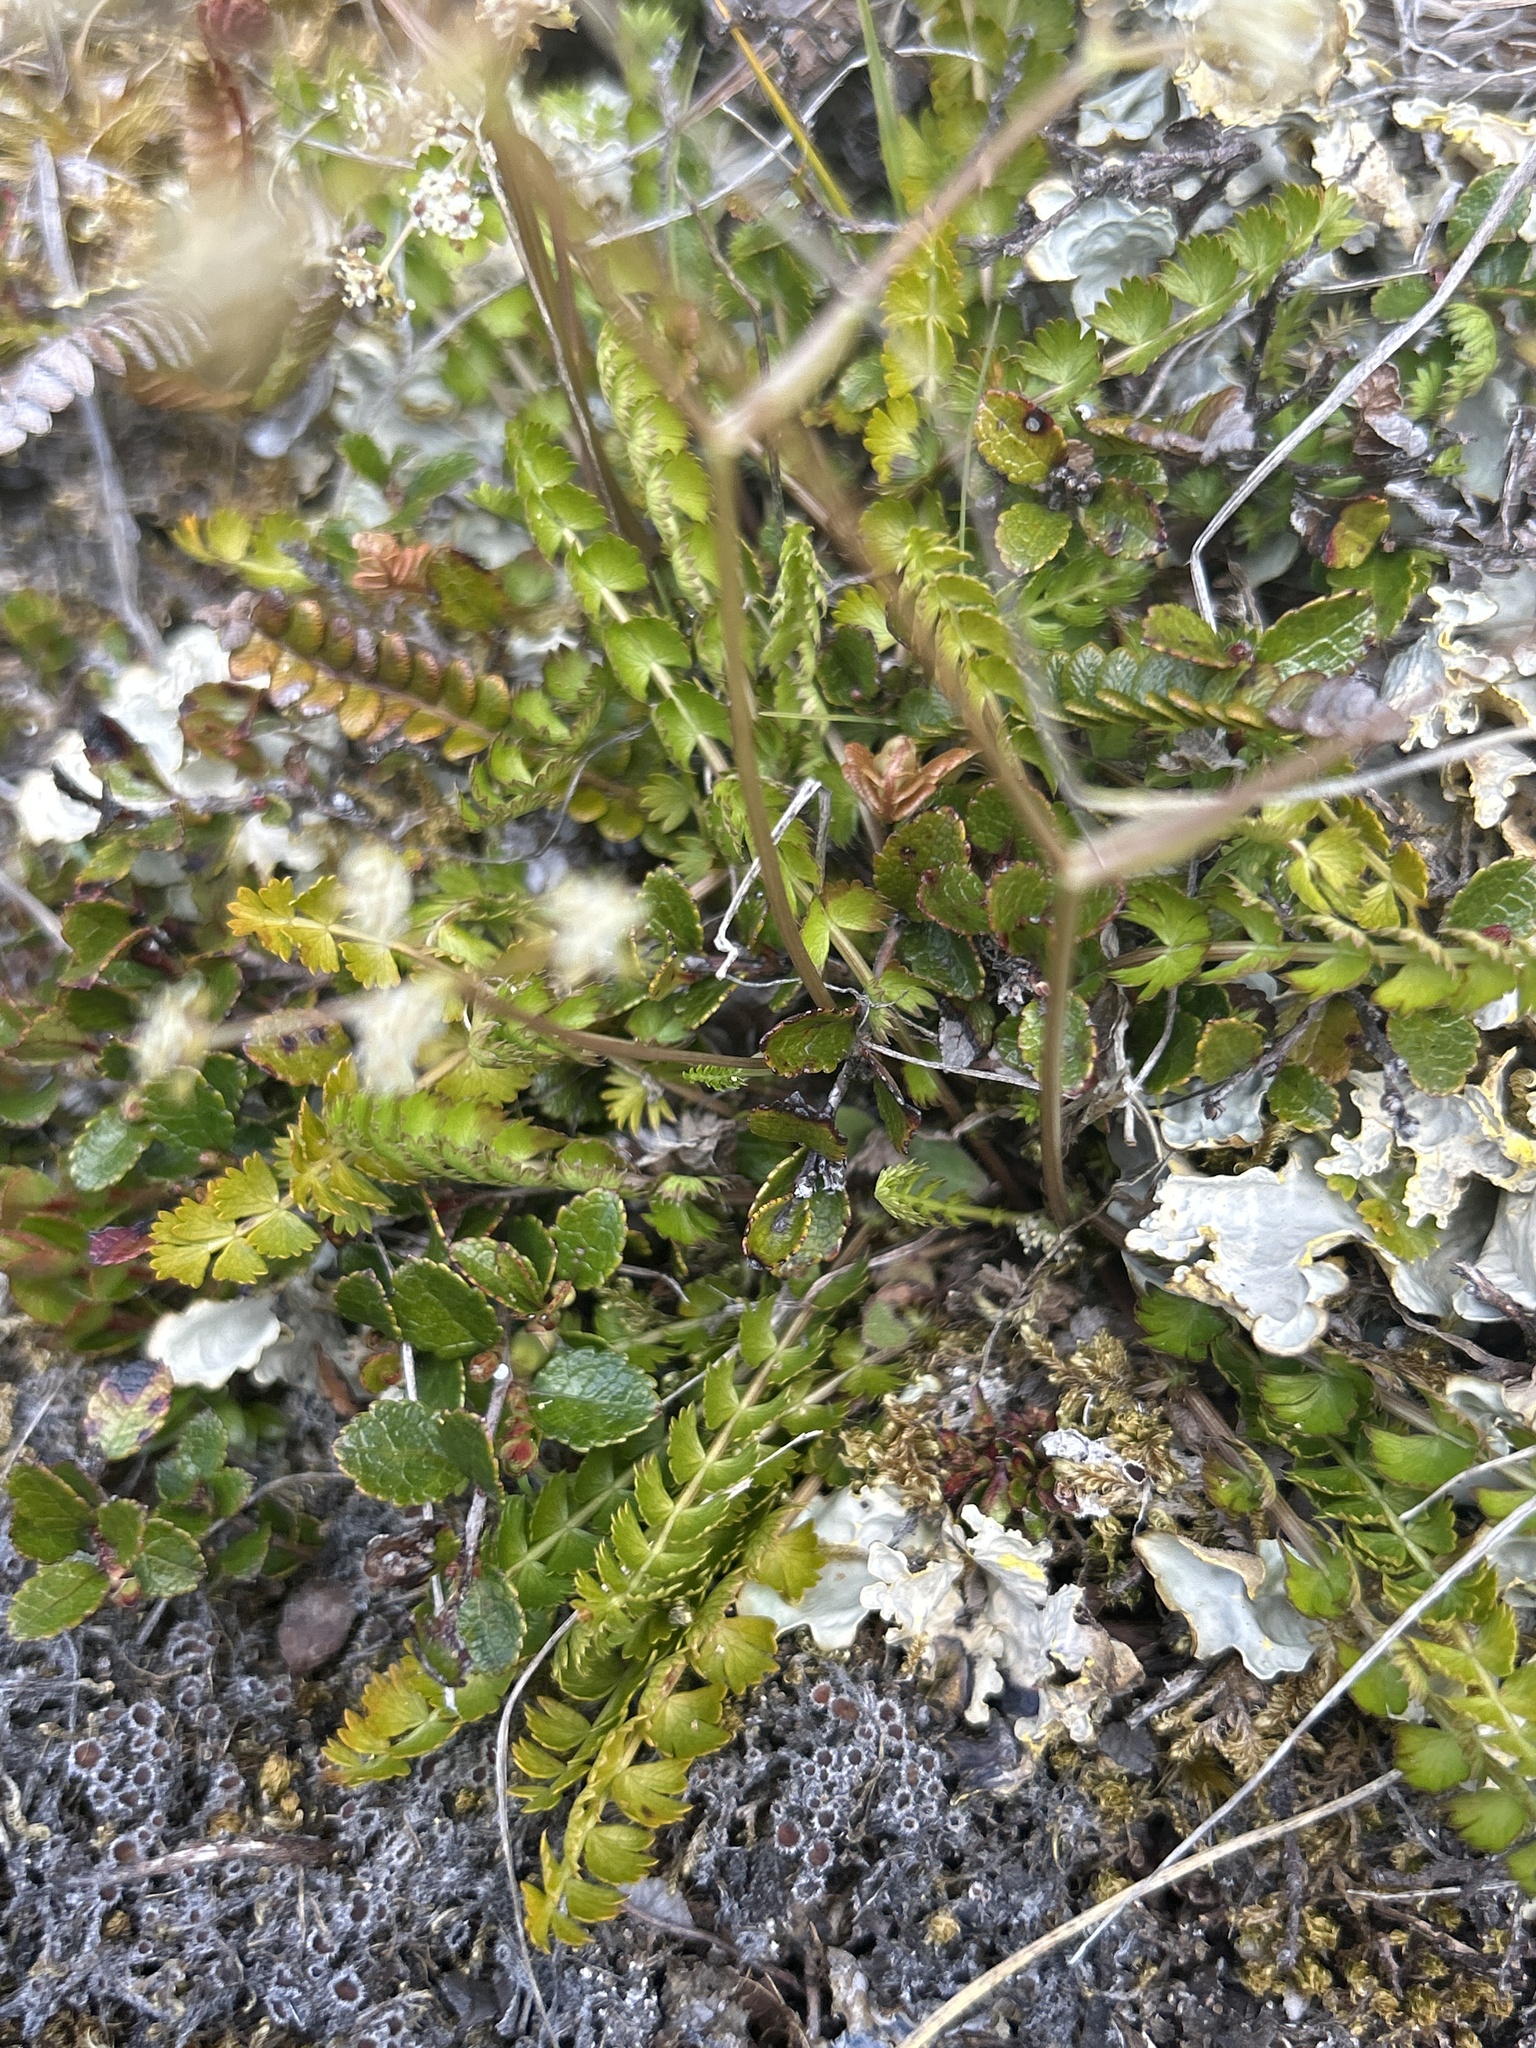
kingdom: Plantae
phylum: Tracheophyta
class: Magnoliopsida
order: Apiales
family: Apiaceae
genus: Anisotome
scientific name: Anisotome aromatica
